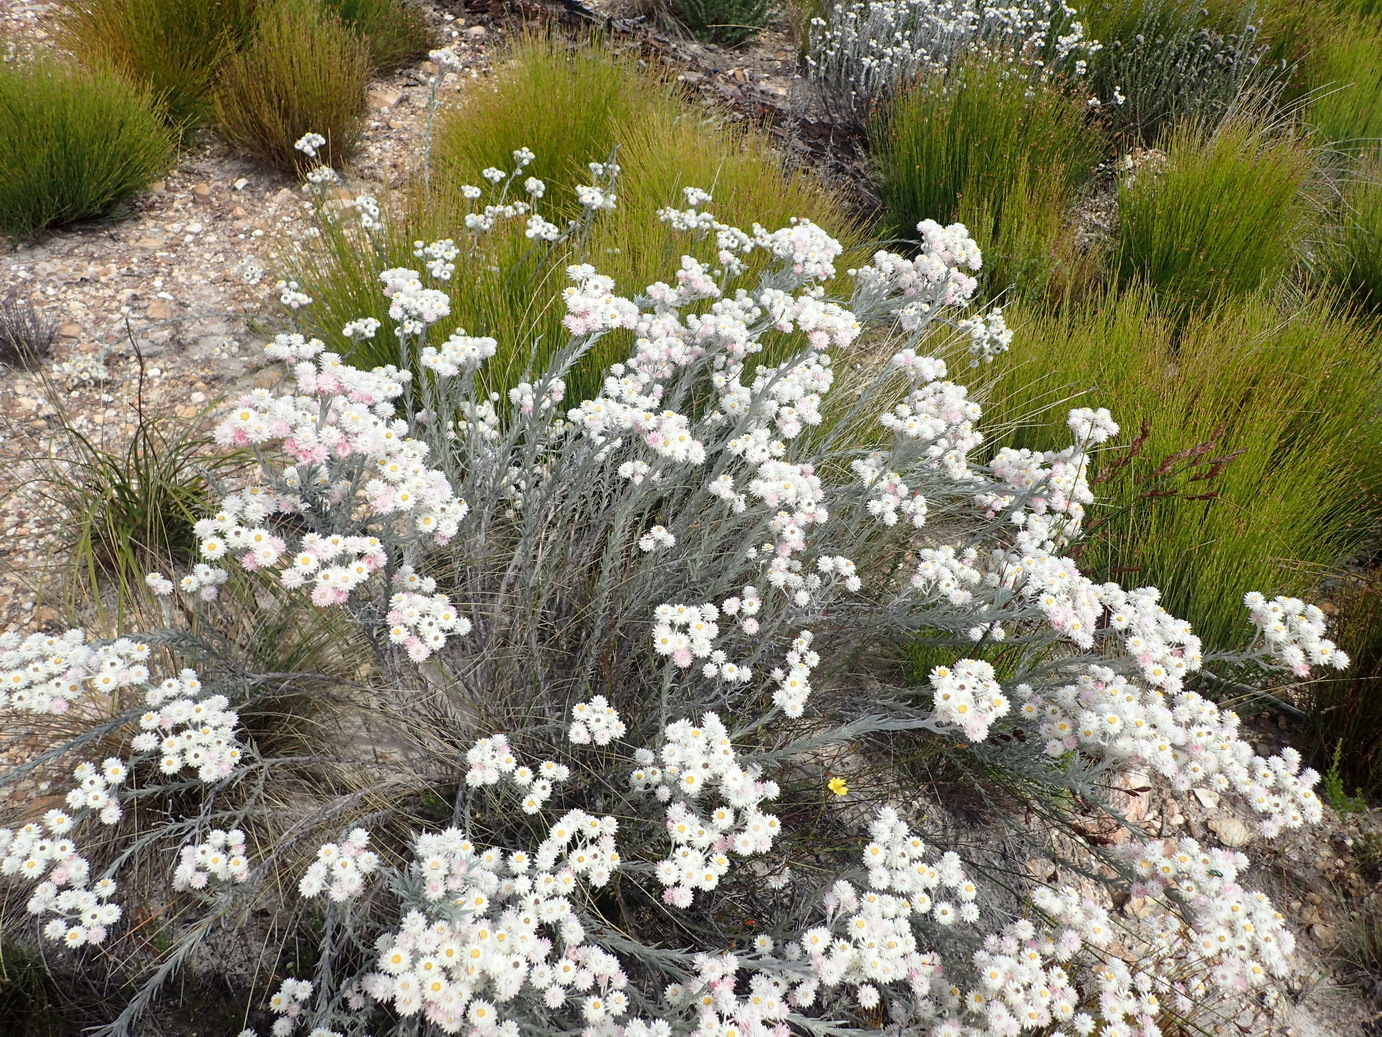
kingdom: Plantae
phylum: Tracheophyta
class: Magnoliopsida
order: Asterales
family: Asteraceae
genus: Achyranthemum
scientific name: Achyranthemum paniculatum
